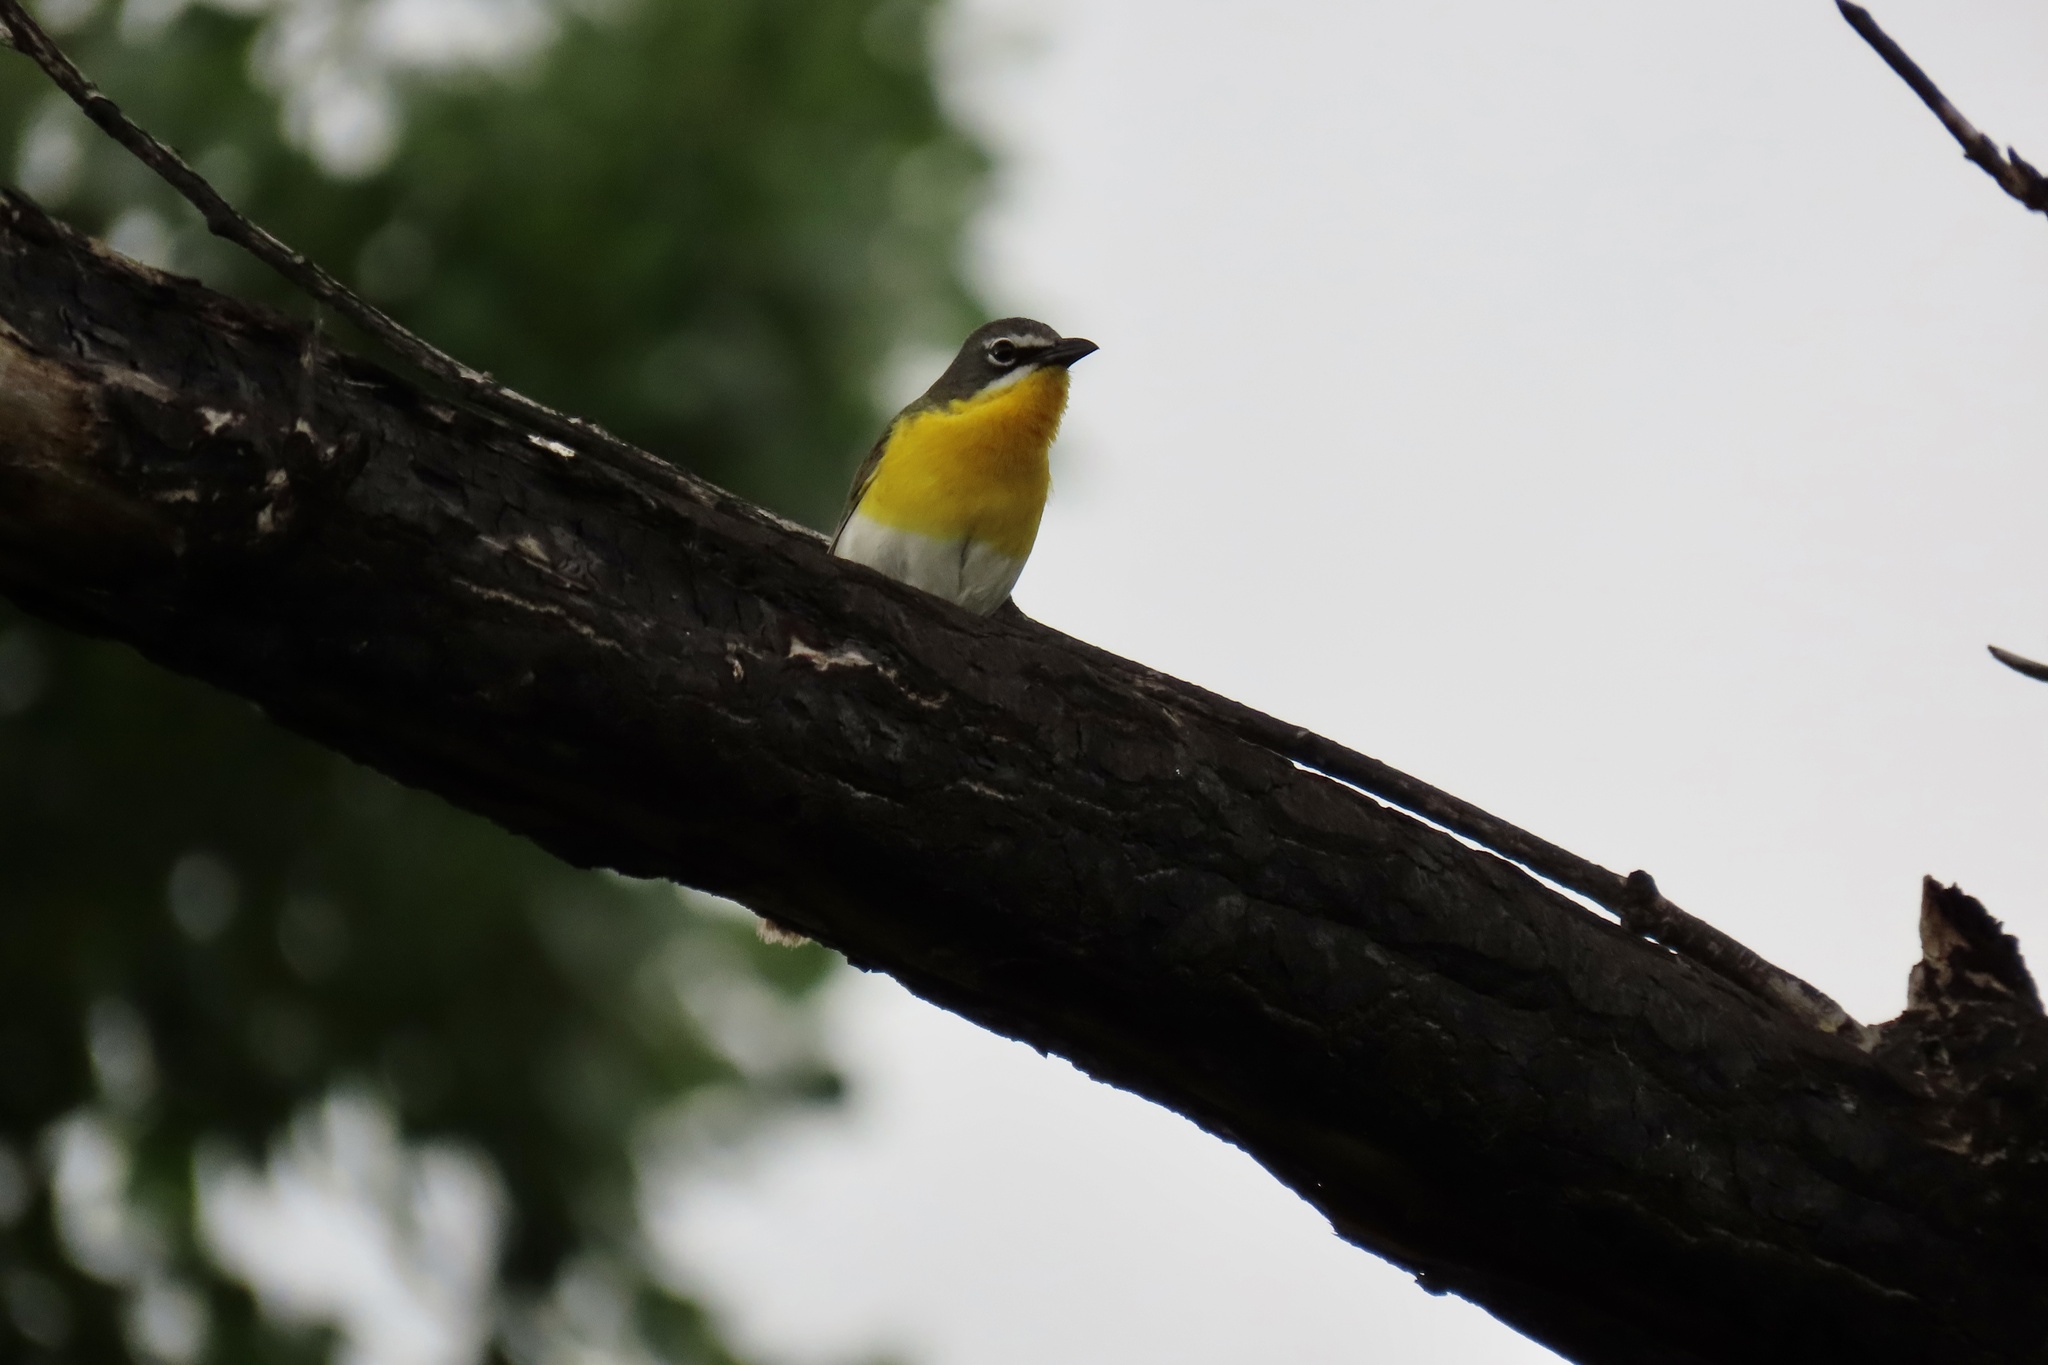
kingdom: Animalia
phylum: Chordata
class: Aves
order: Passeriformes
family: Parulidae
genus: Icteria
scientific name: Icteria virens
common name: Yellow-breasted chat
